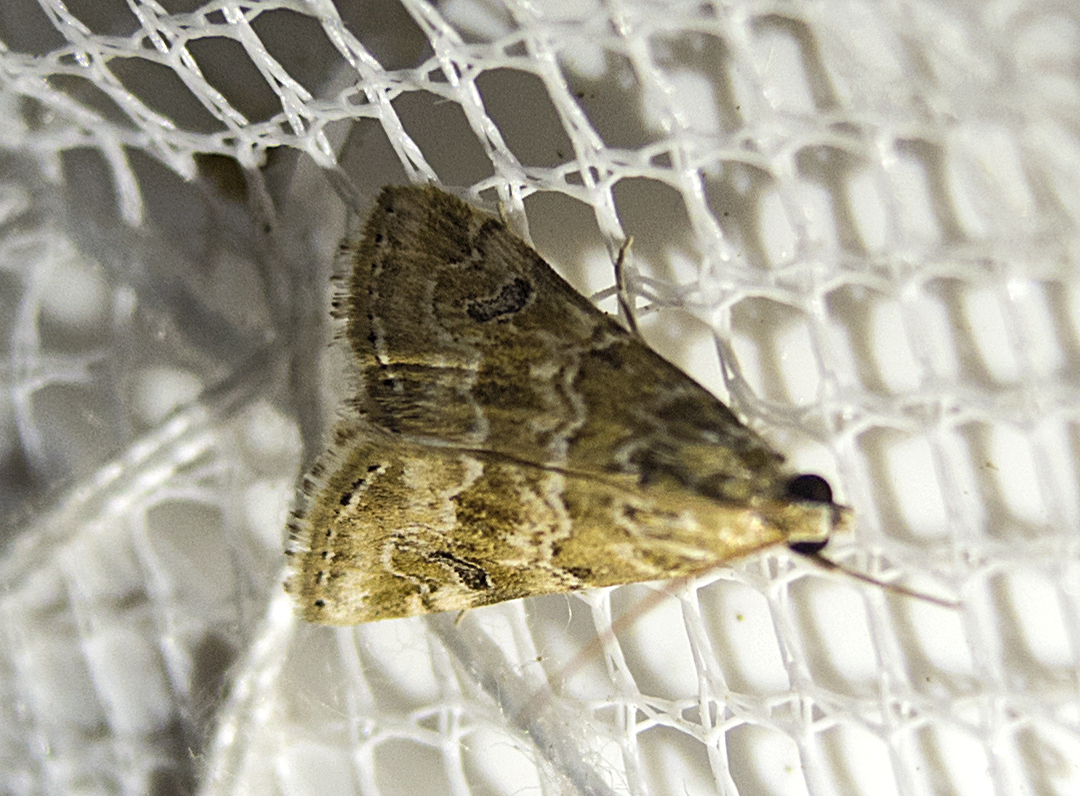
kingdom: Animalia
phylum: Arthropoda
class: Insecta
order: Lepidoptera
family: Crambidae
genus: Hellula
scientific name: Hellula undalis
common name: Cabbage webworm
